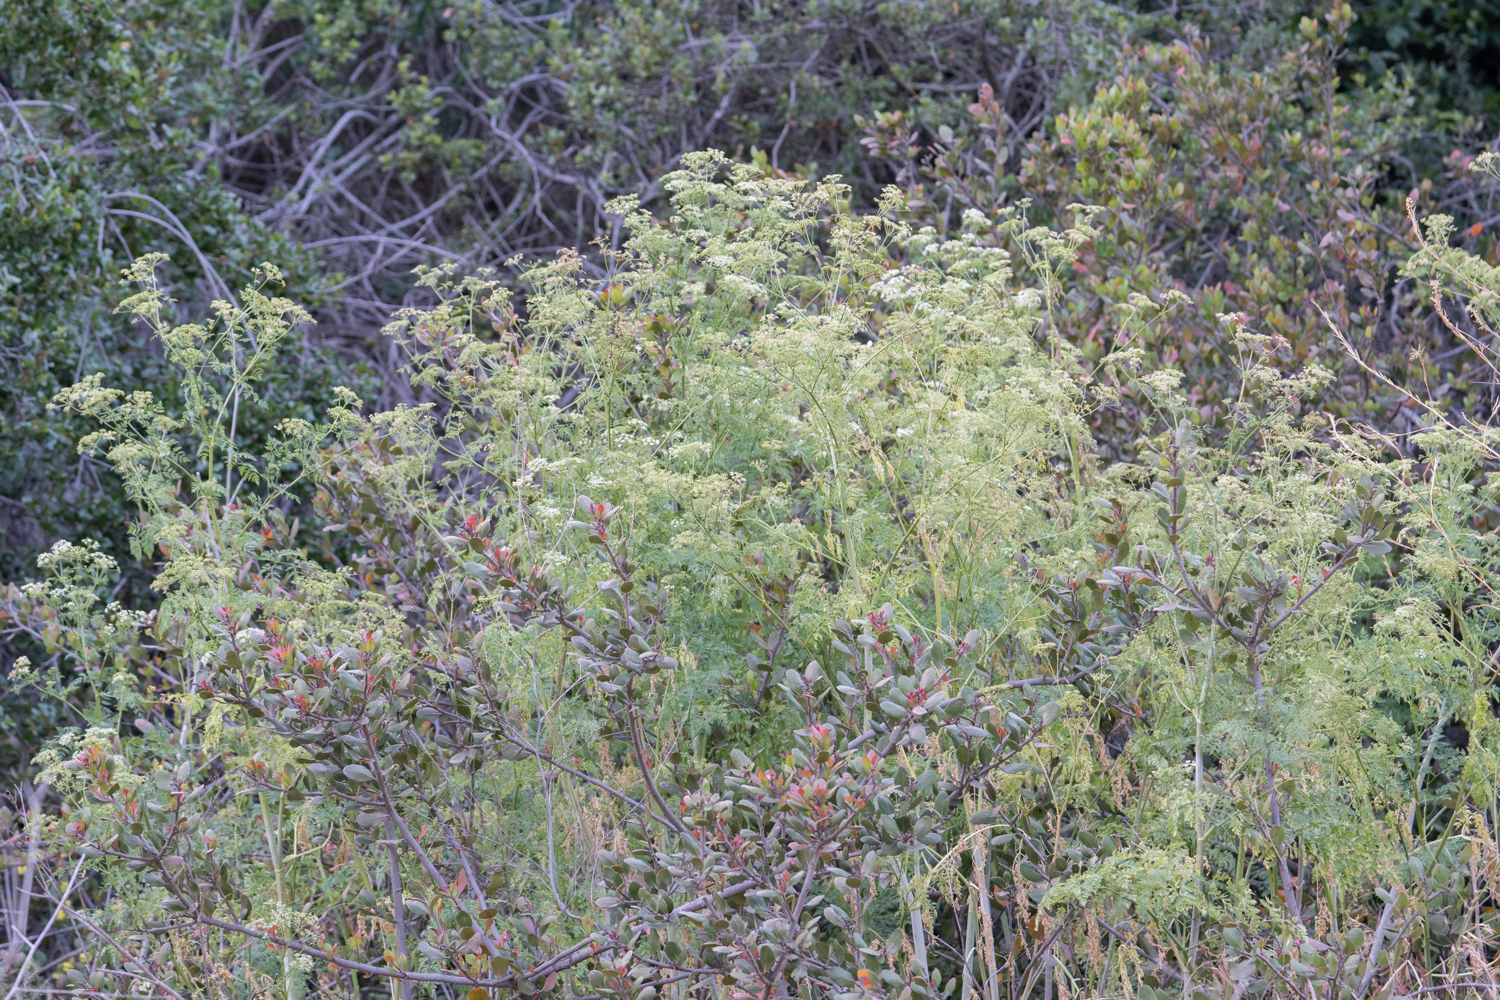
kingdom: Plantae
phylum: Tracheophyta
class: Magnoliopsida
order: Apiales
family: Apiaceae
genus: Conium
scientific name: Conium maculatum
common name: Hemlock
